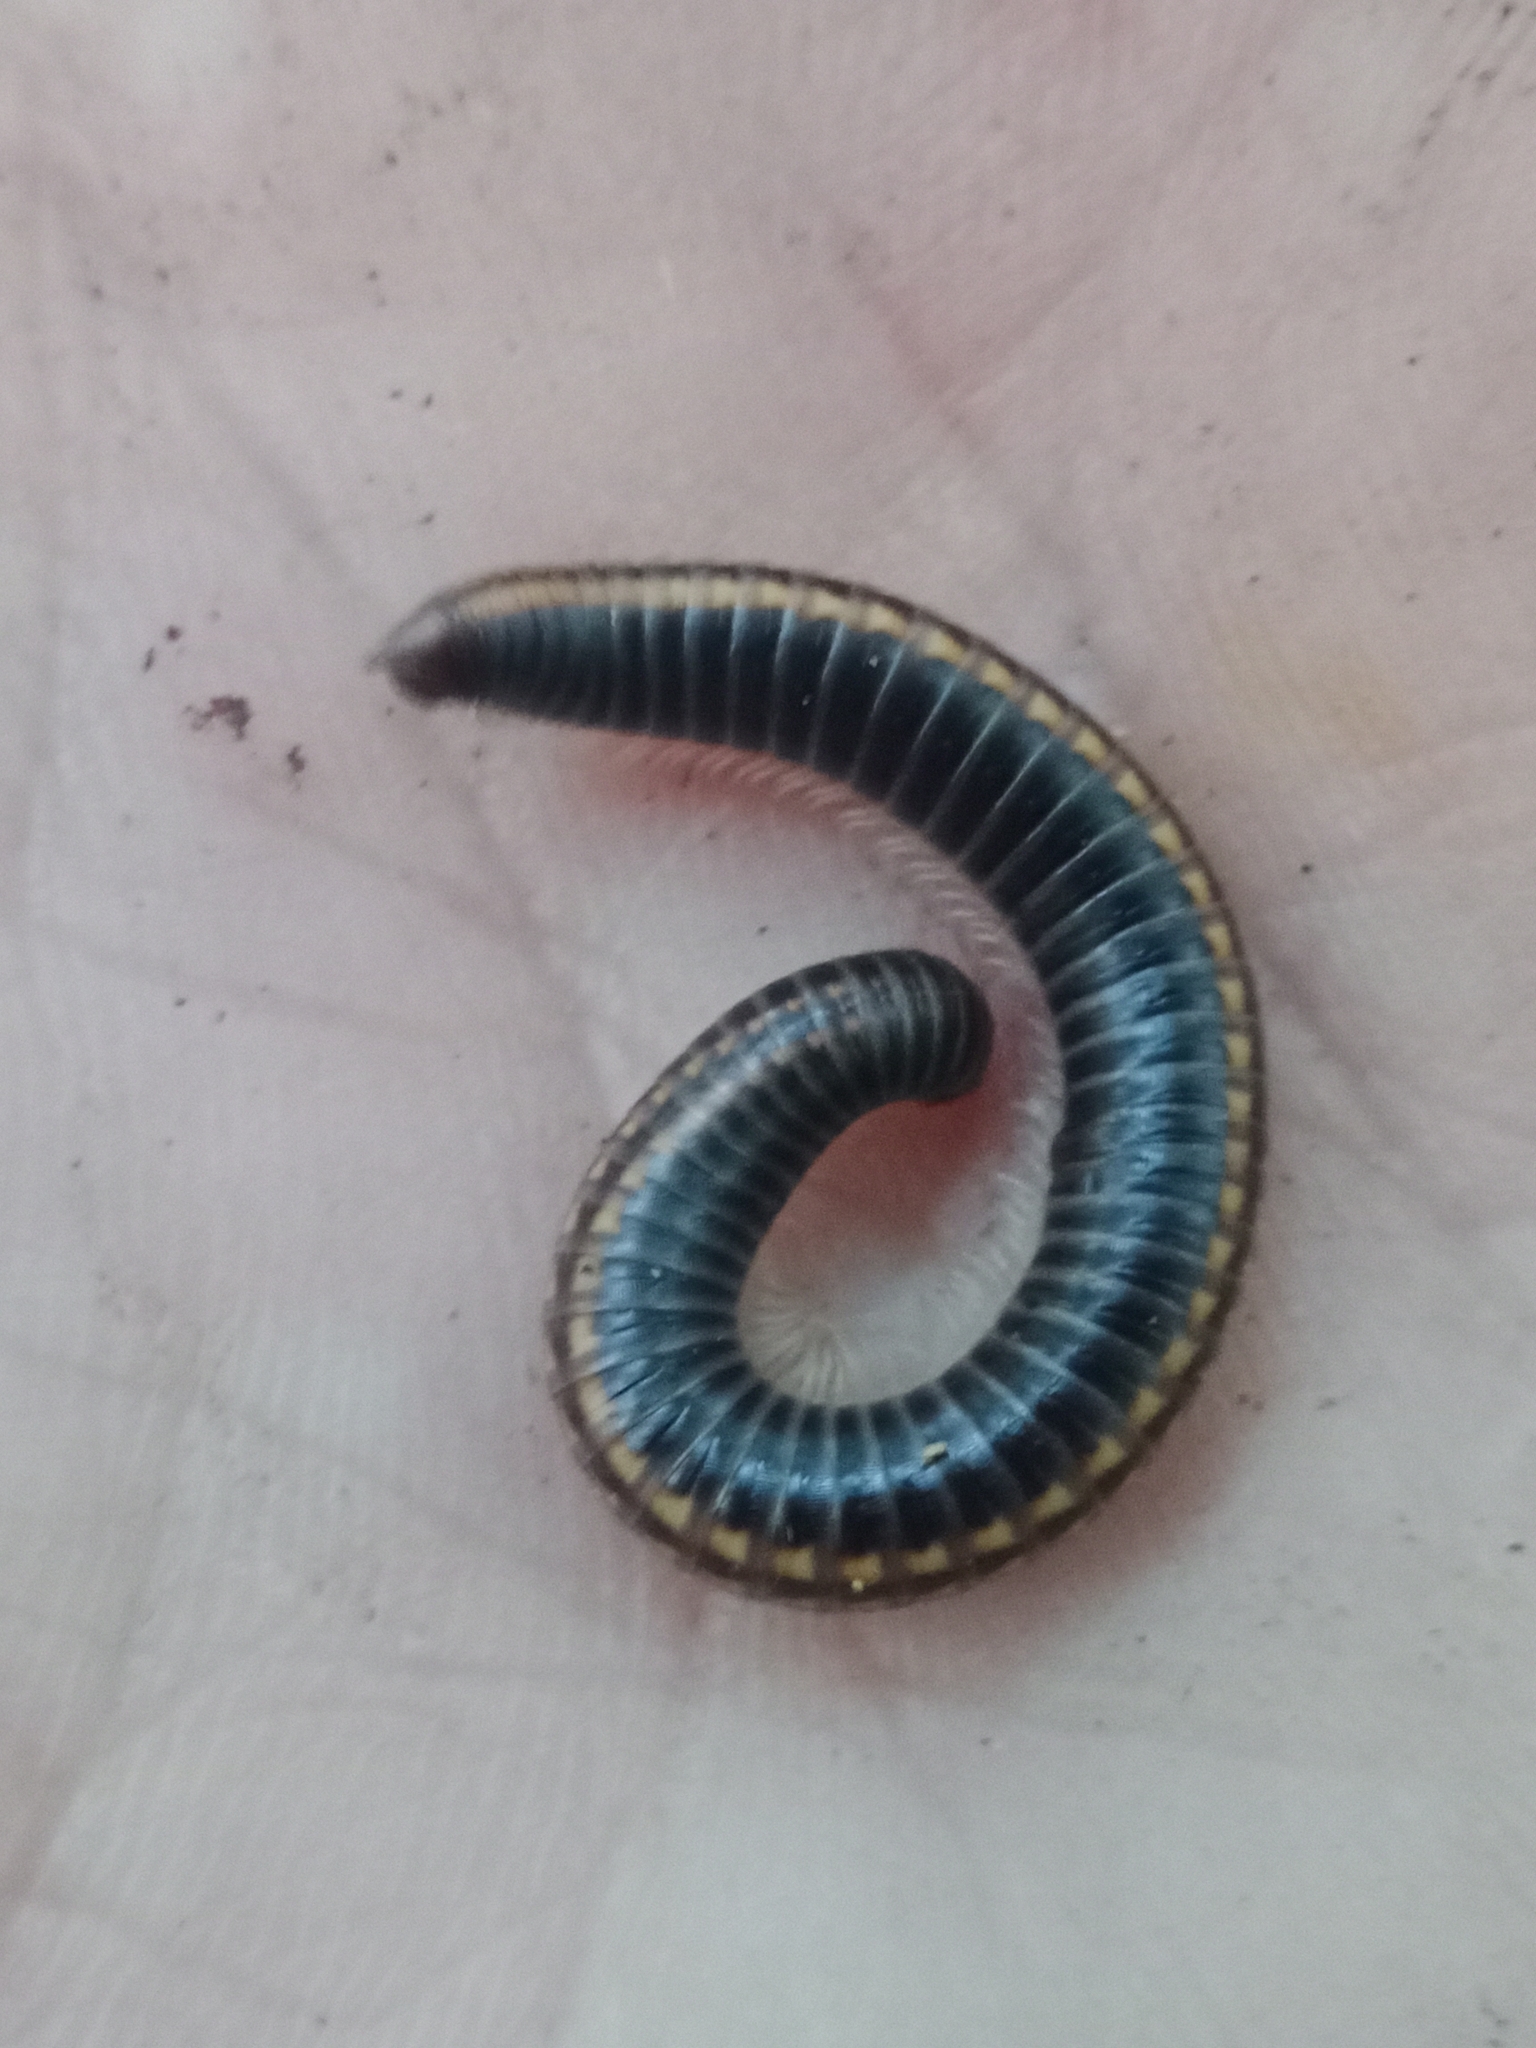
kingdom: Animalia
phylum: Arthropoda
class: Diplopoda
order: Julida
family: Julidae
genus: Ommatoiulus
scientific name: Ommatoiulus sabulosus
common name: Striped millipede
